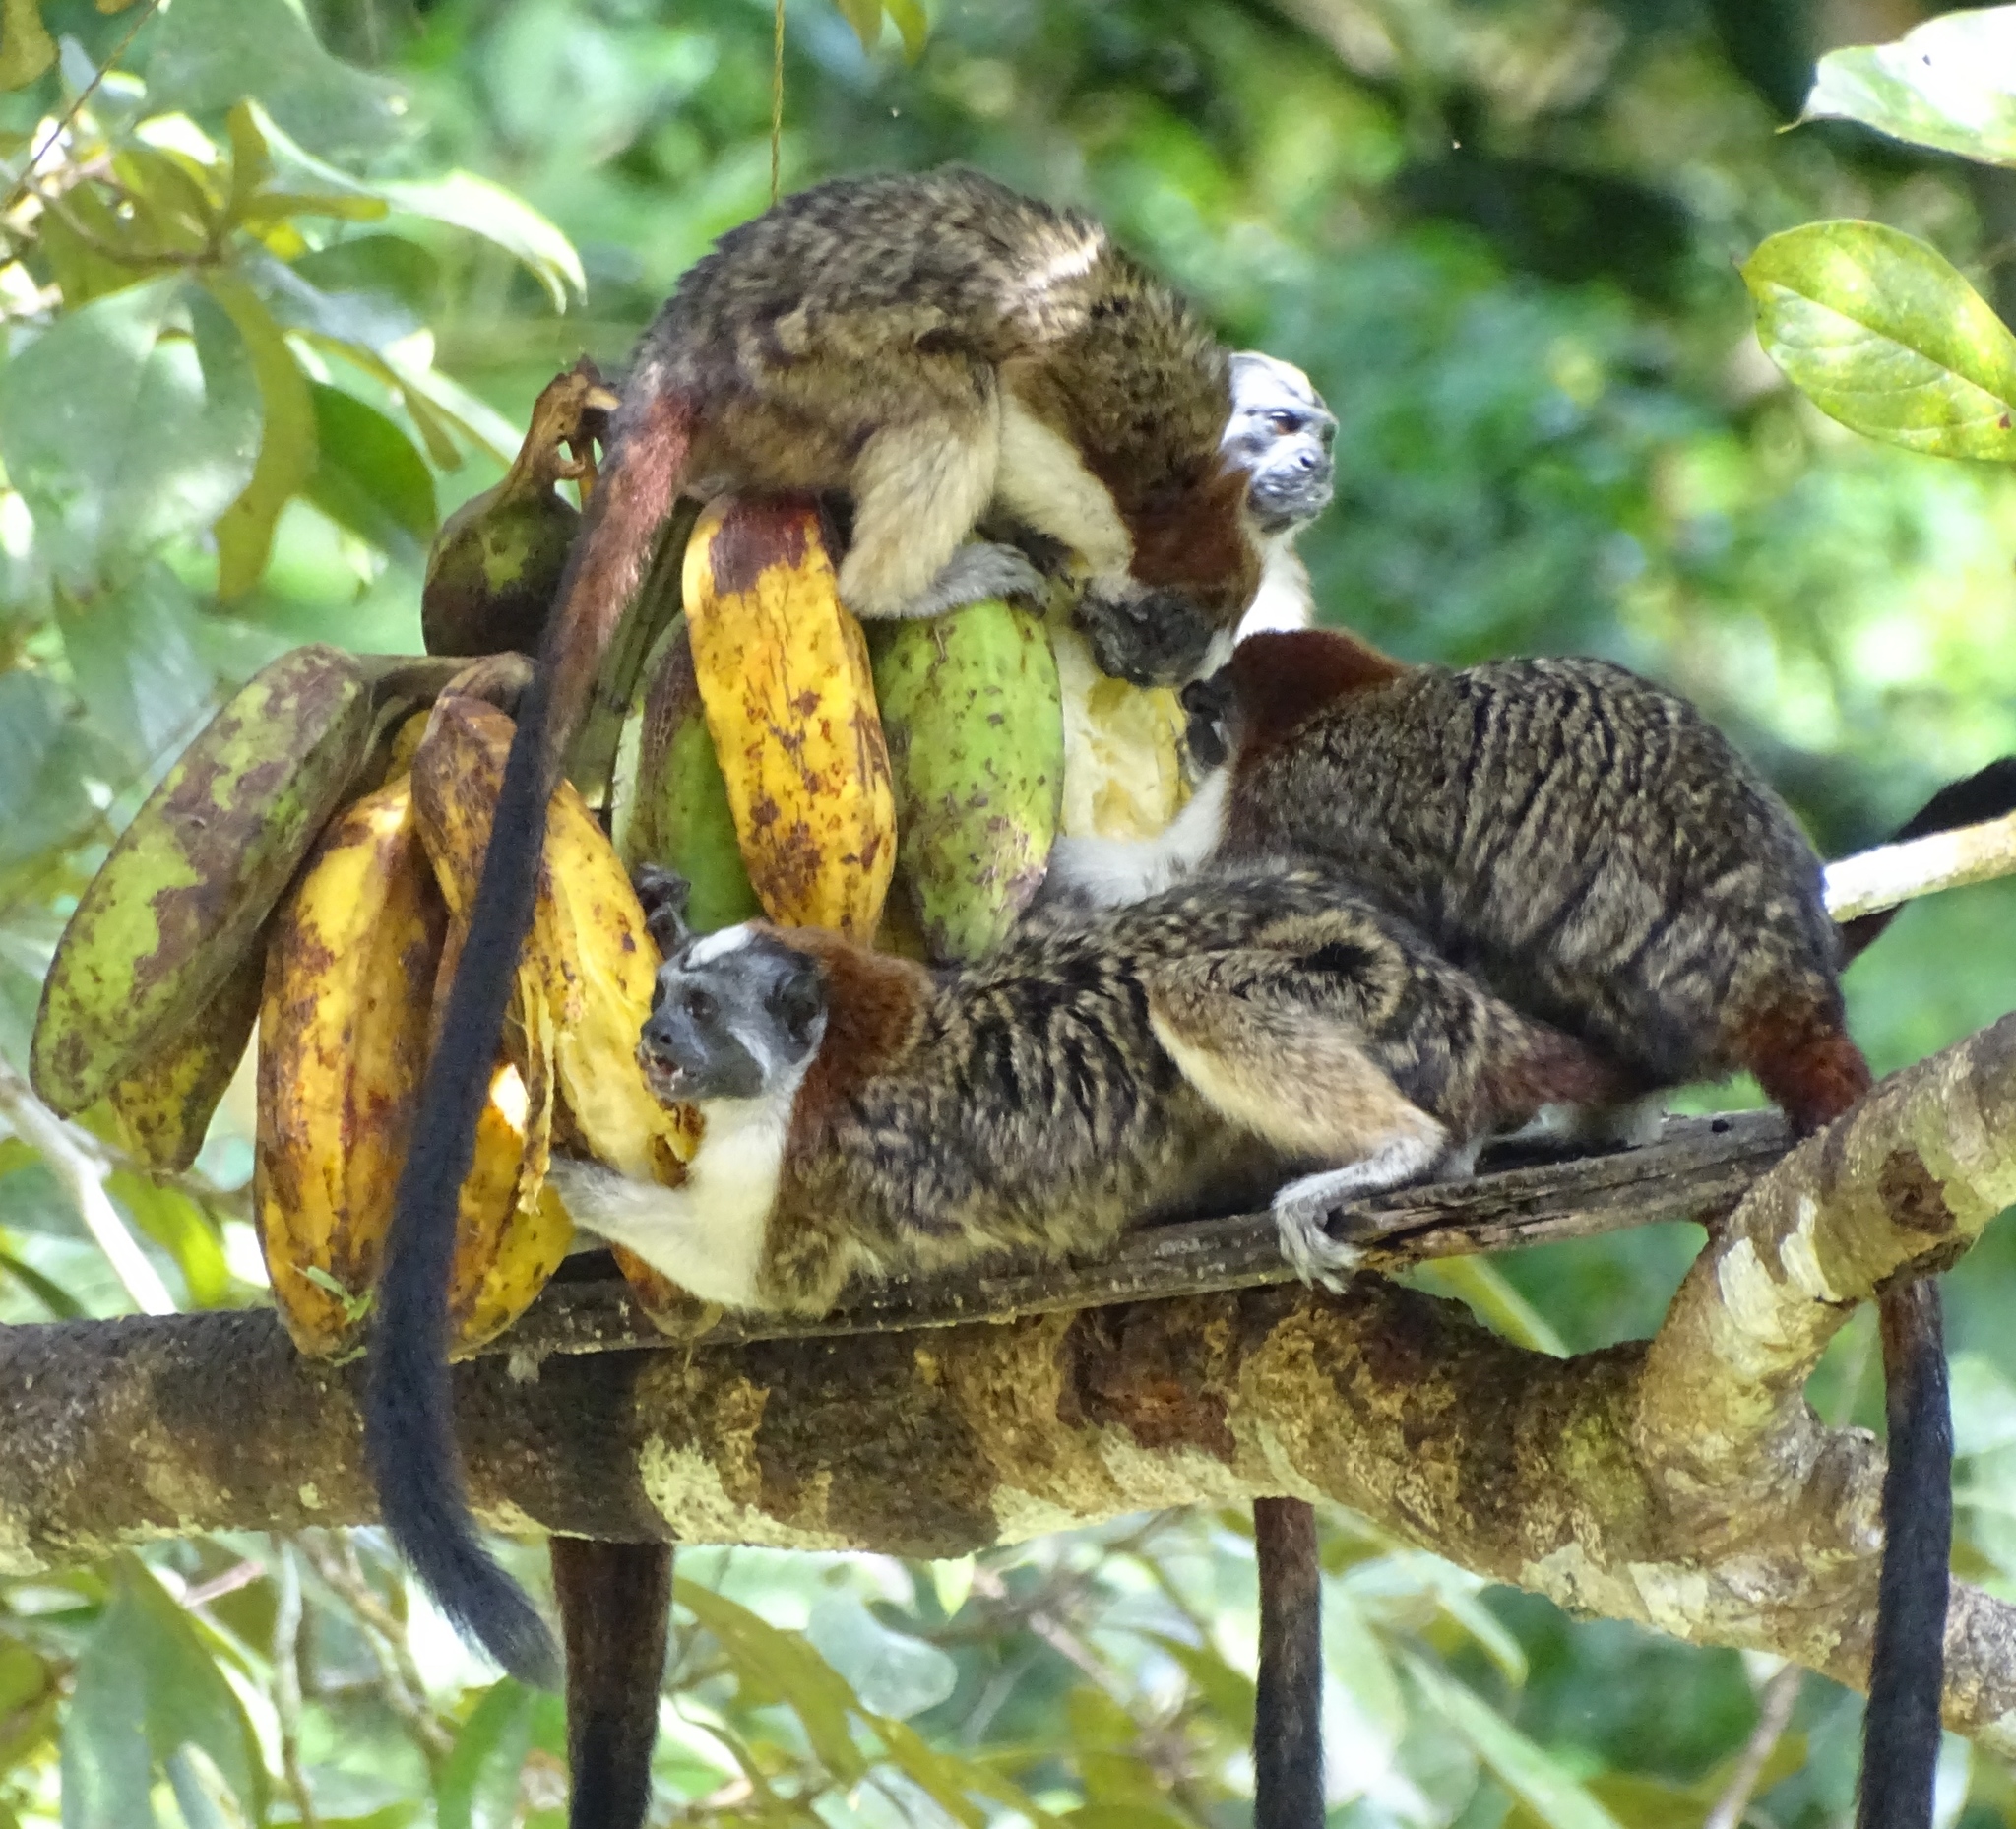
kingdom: Animalia
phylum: Chordata
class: Mammalia
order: Primates
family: Callitrichidae
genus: Saguinus
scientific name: Saguinus geoffroyi
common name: Geoffroy s tamarin
